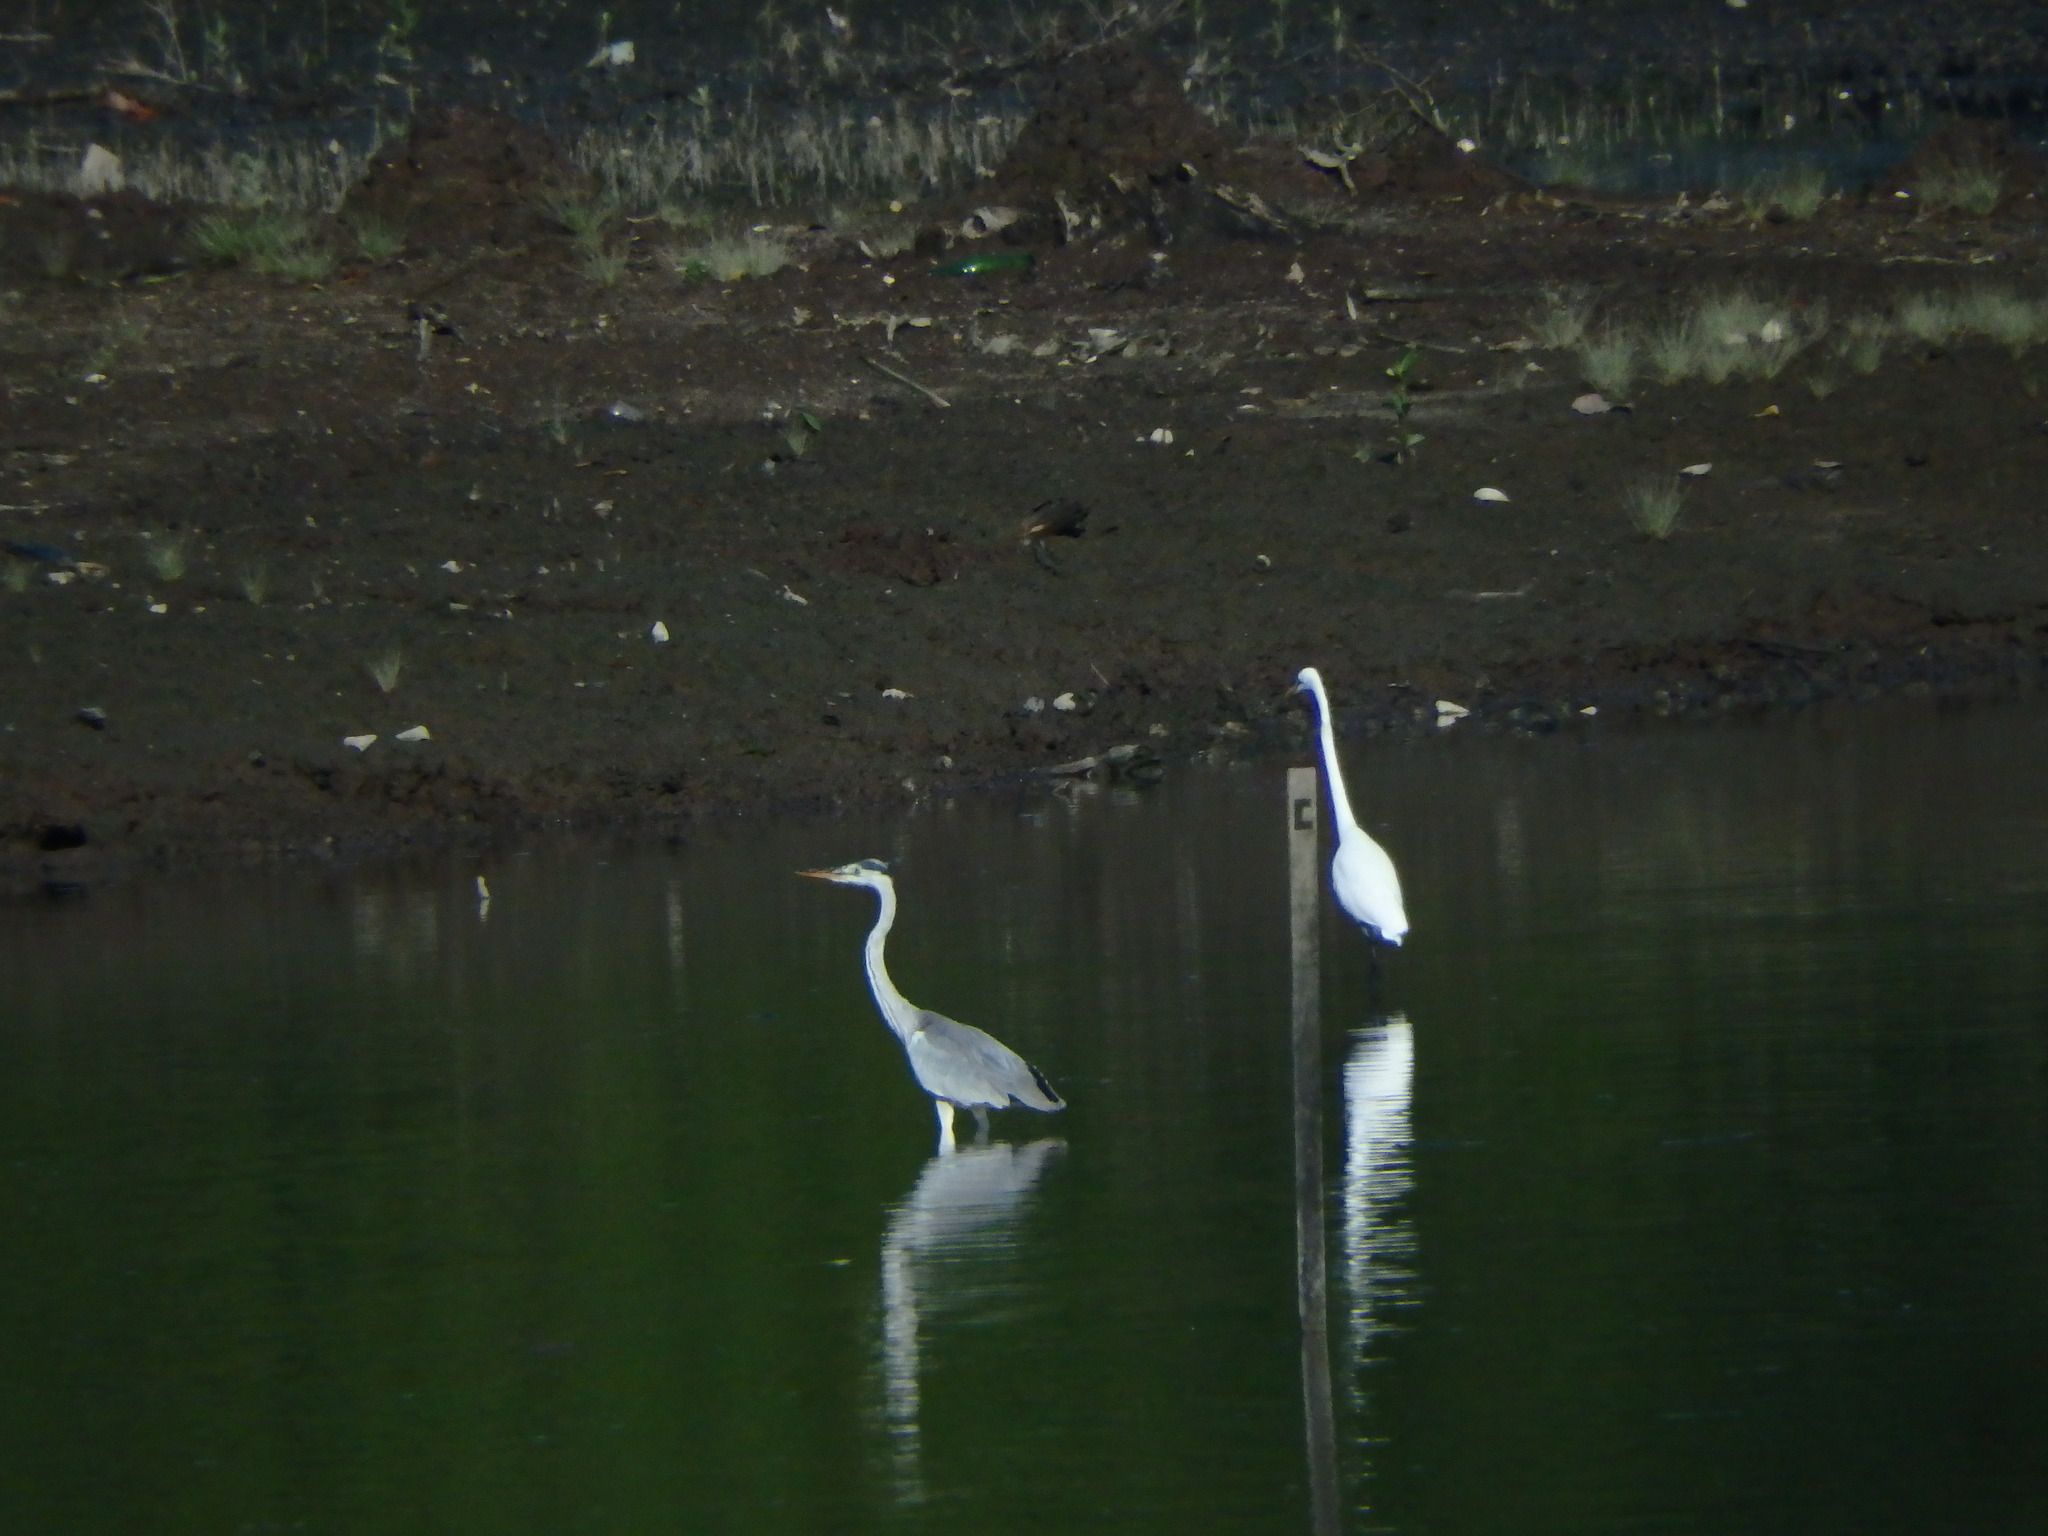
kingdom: Animalia
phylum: Chordata
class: Aves
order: Pelecaniformes
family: Ardeidae
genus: Ardea
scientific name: Ardea cinerea
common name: Grey heron
